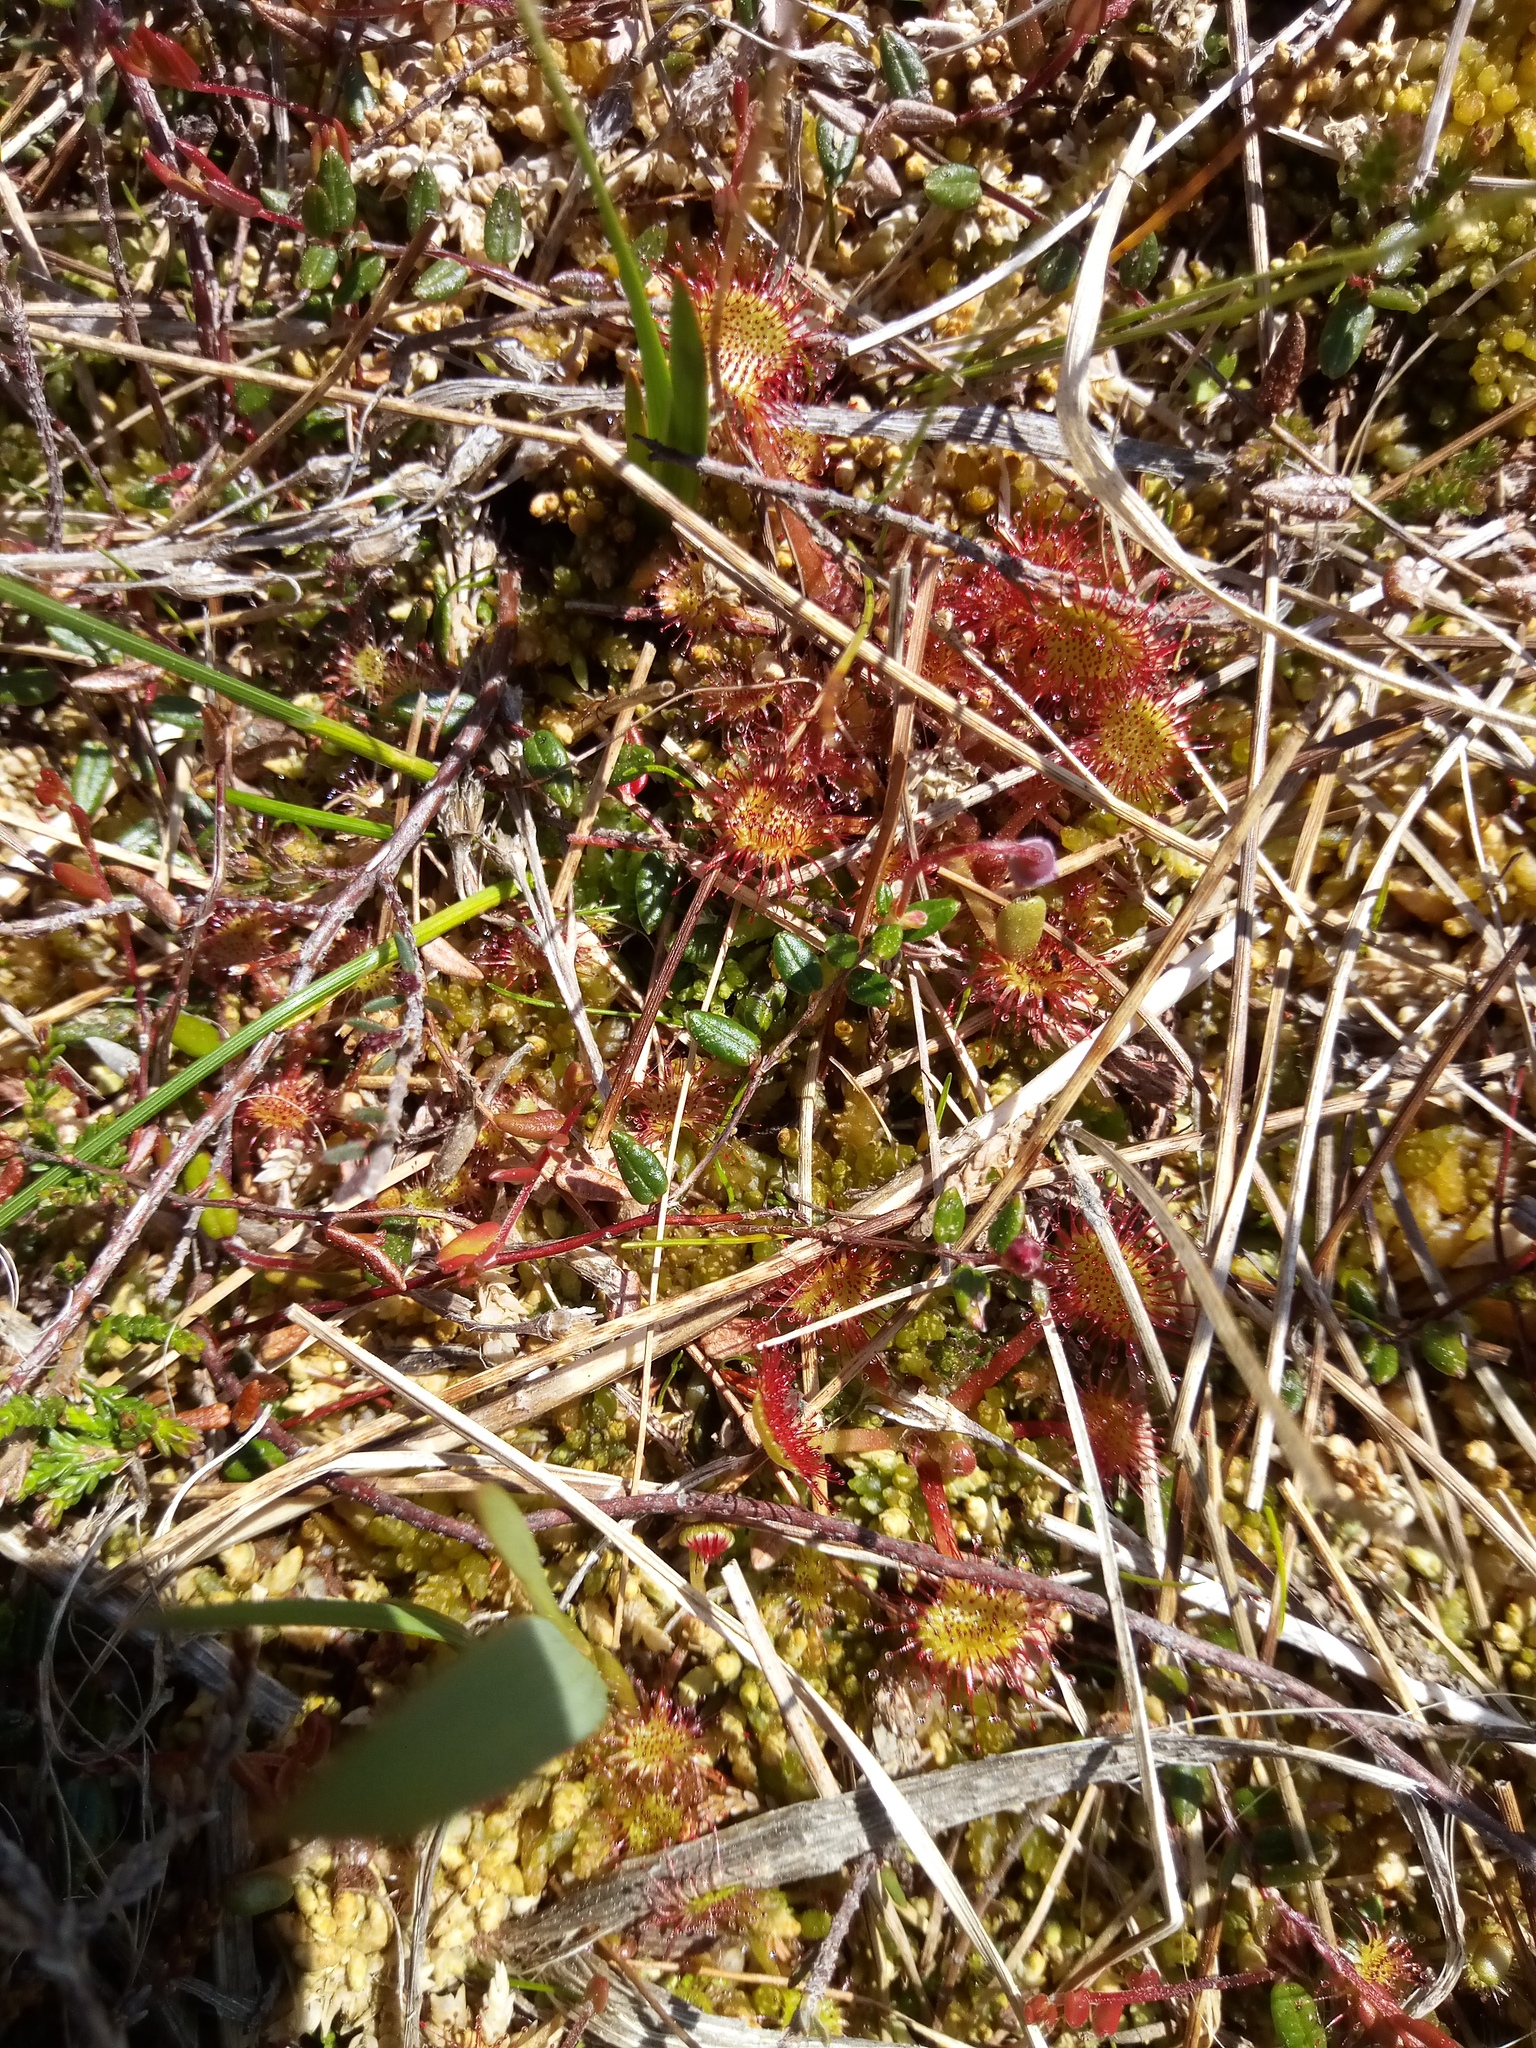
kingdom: Plantae
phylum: Tracheophyta
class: Magnoliopsida
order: Ericales
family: Ericaceae
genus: Vaccinium
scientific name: Vaccinium oxycoccos
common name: Cranberry
